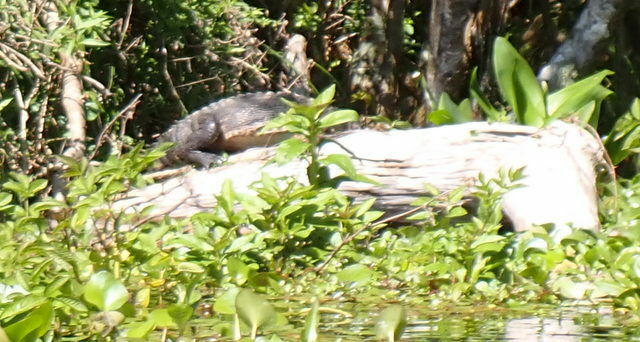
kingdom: Animalia
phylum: Chordata
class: Crocodylia
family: Alligatoridae
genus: Alligator
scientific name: Alligator mississippiensis
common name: American alligator
